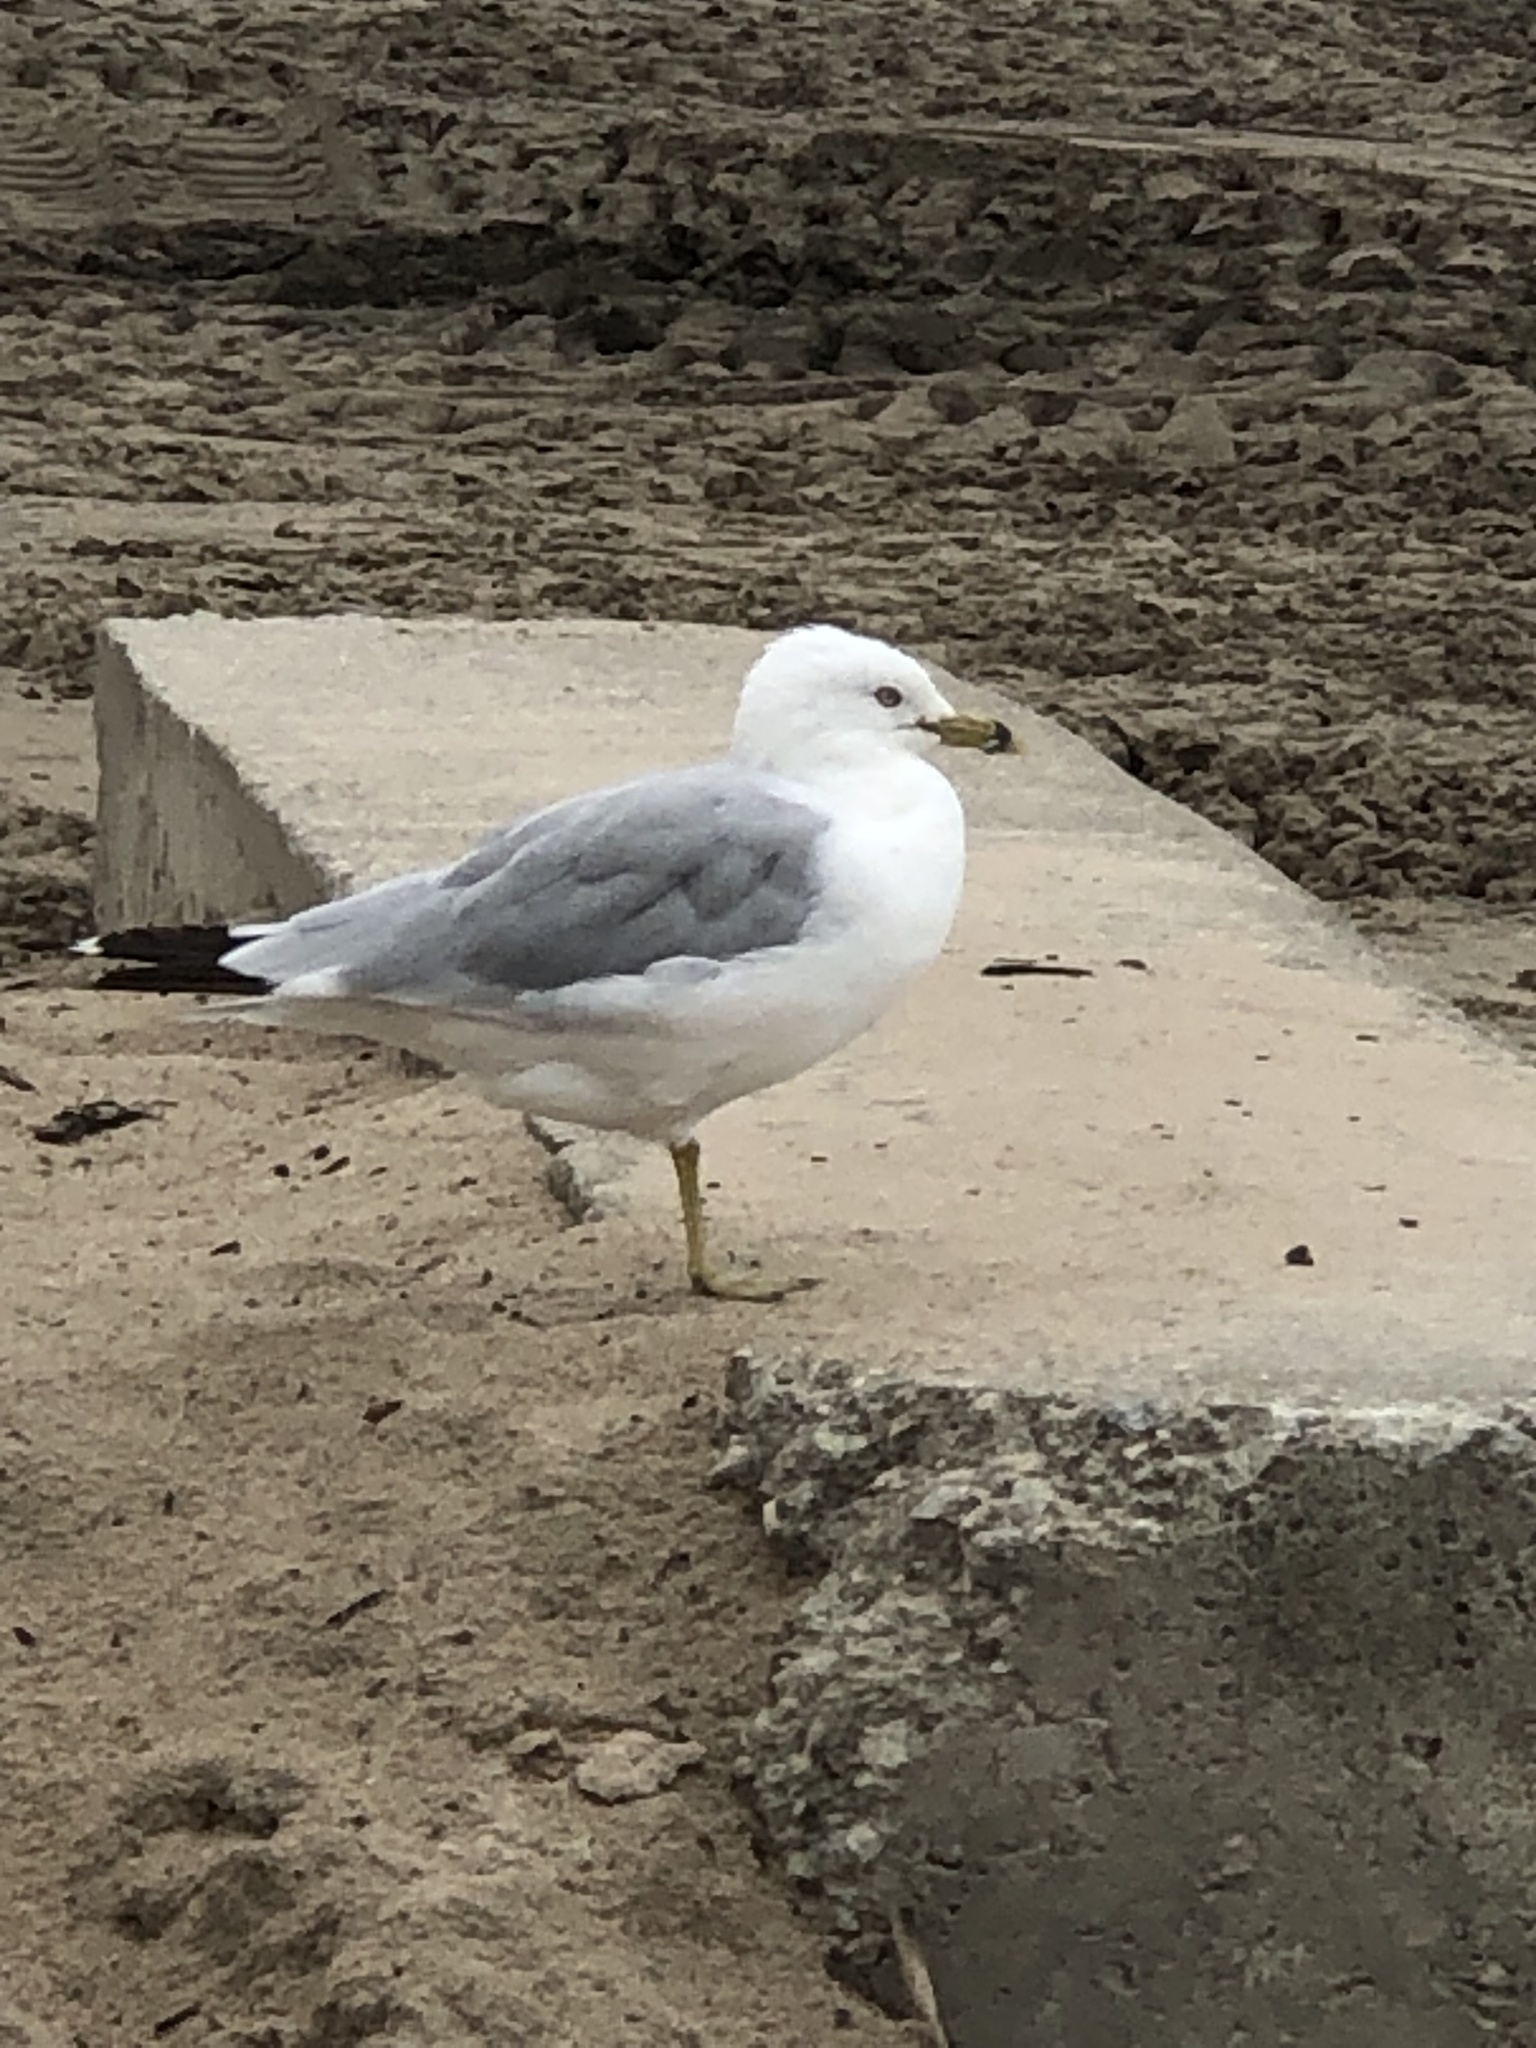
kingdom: Animalia
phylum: Chordata
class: Aves
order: Charadriiformes
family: Laridae
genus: Larus
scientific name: Larus delawarensis
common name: Ring-billed gull
